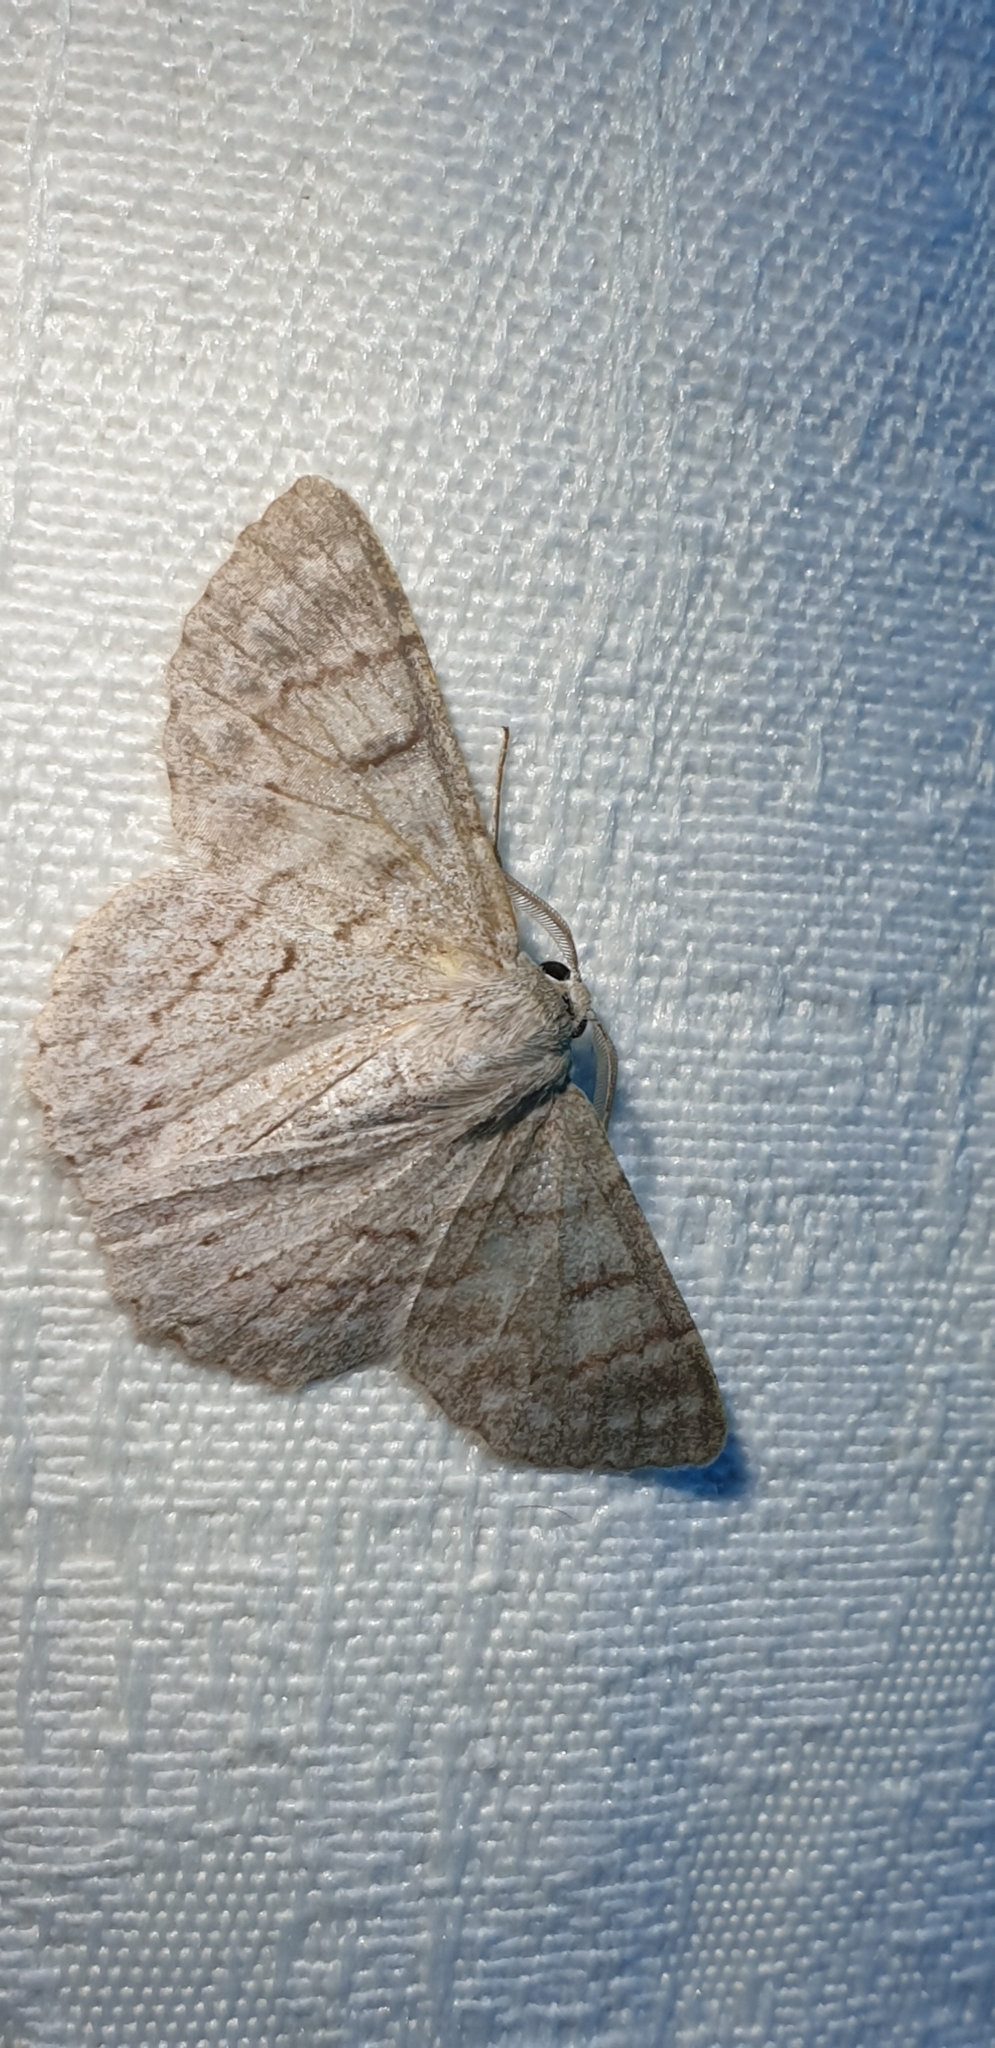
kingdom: Animalia
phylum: Arthropoda
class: Insecta
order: Lepidoptera
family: Geometridae
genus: Crypsiphona
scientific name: Crypsiphona ocultaria
